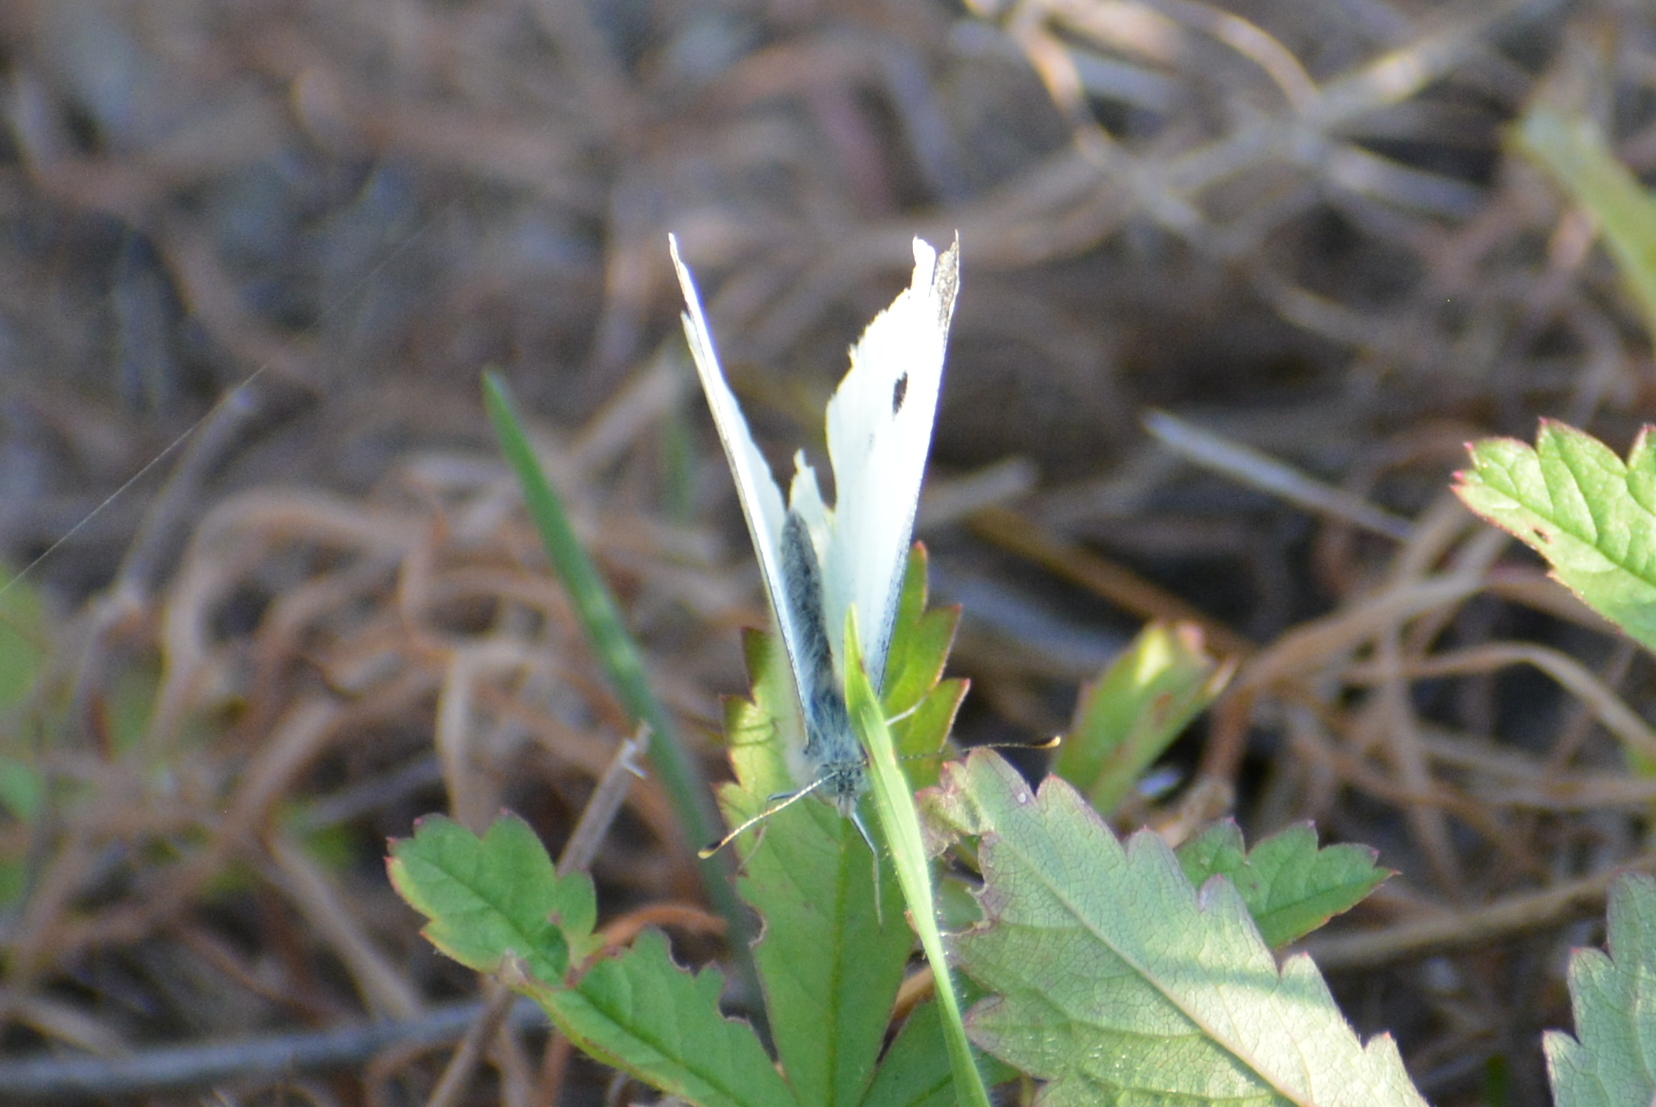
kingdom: Animalia
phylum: Arthropoda
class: Insecta
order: Lepidoptera
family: Pieridae
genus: Pieris
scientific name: Pieris napi
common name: Green-veined white
